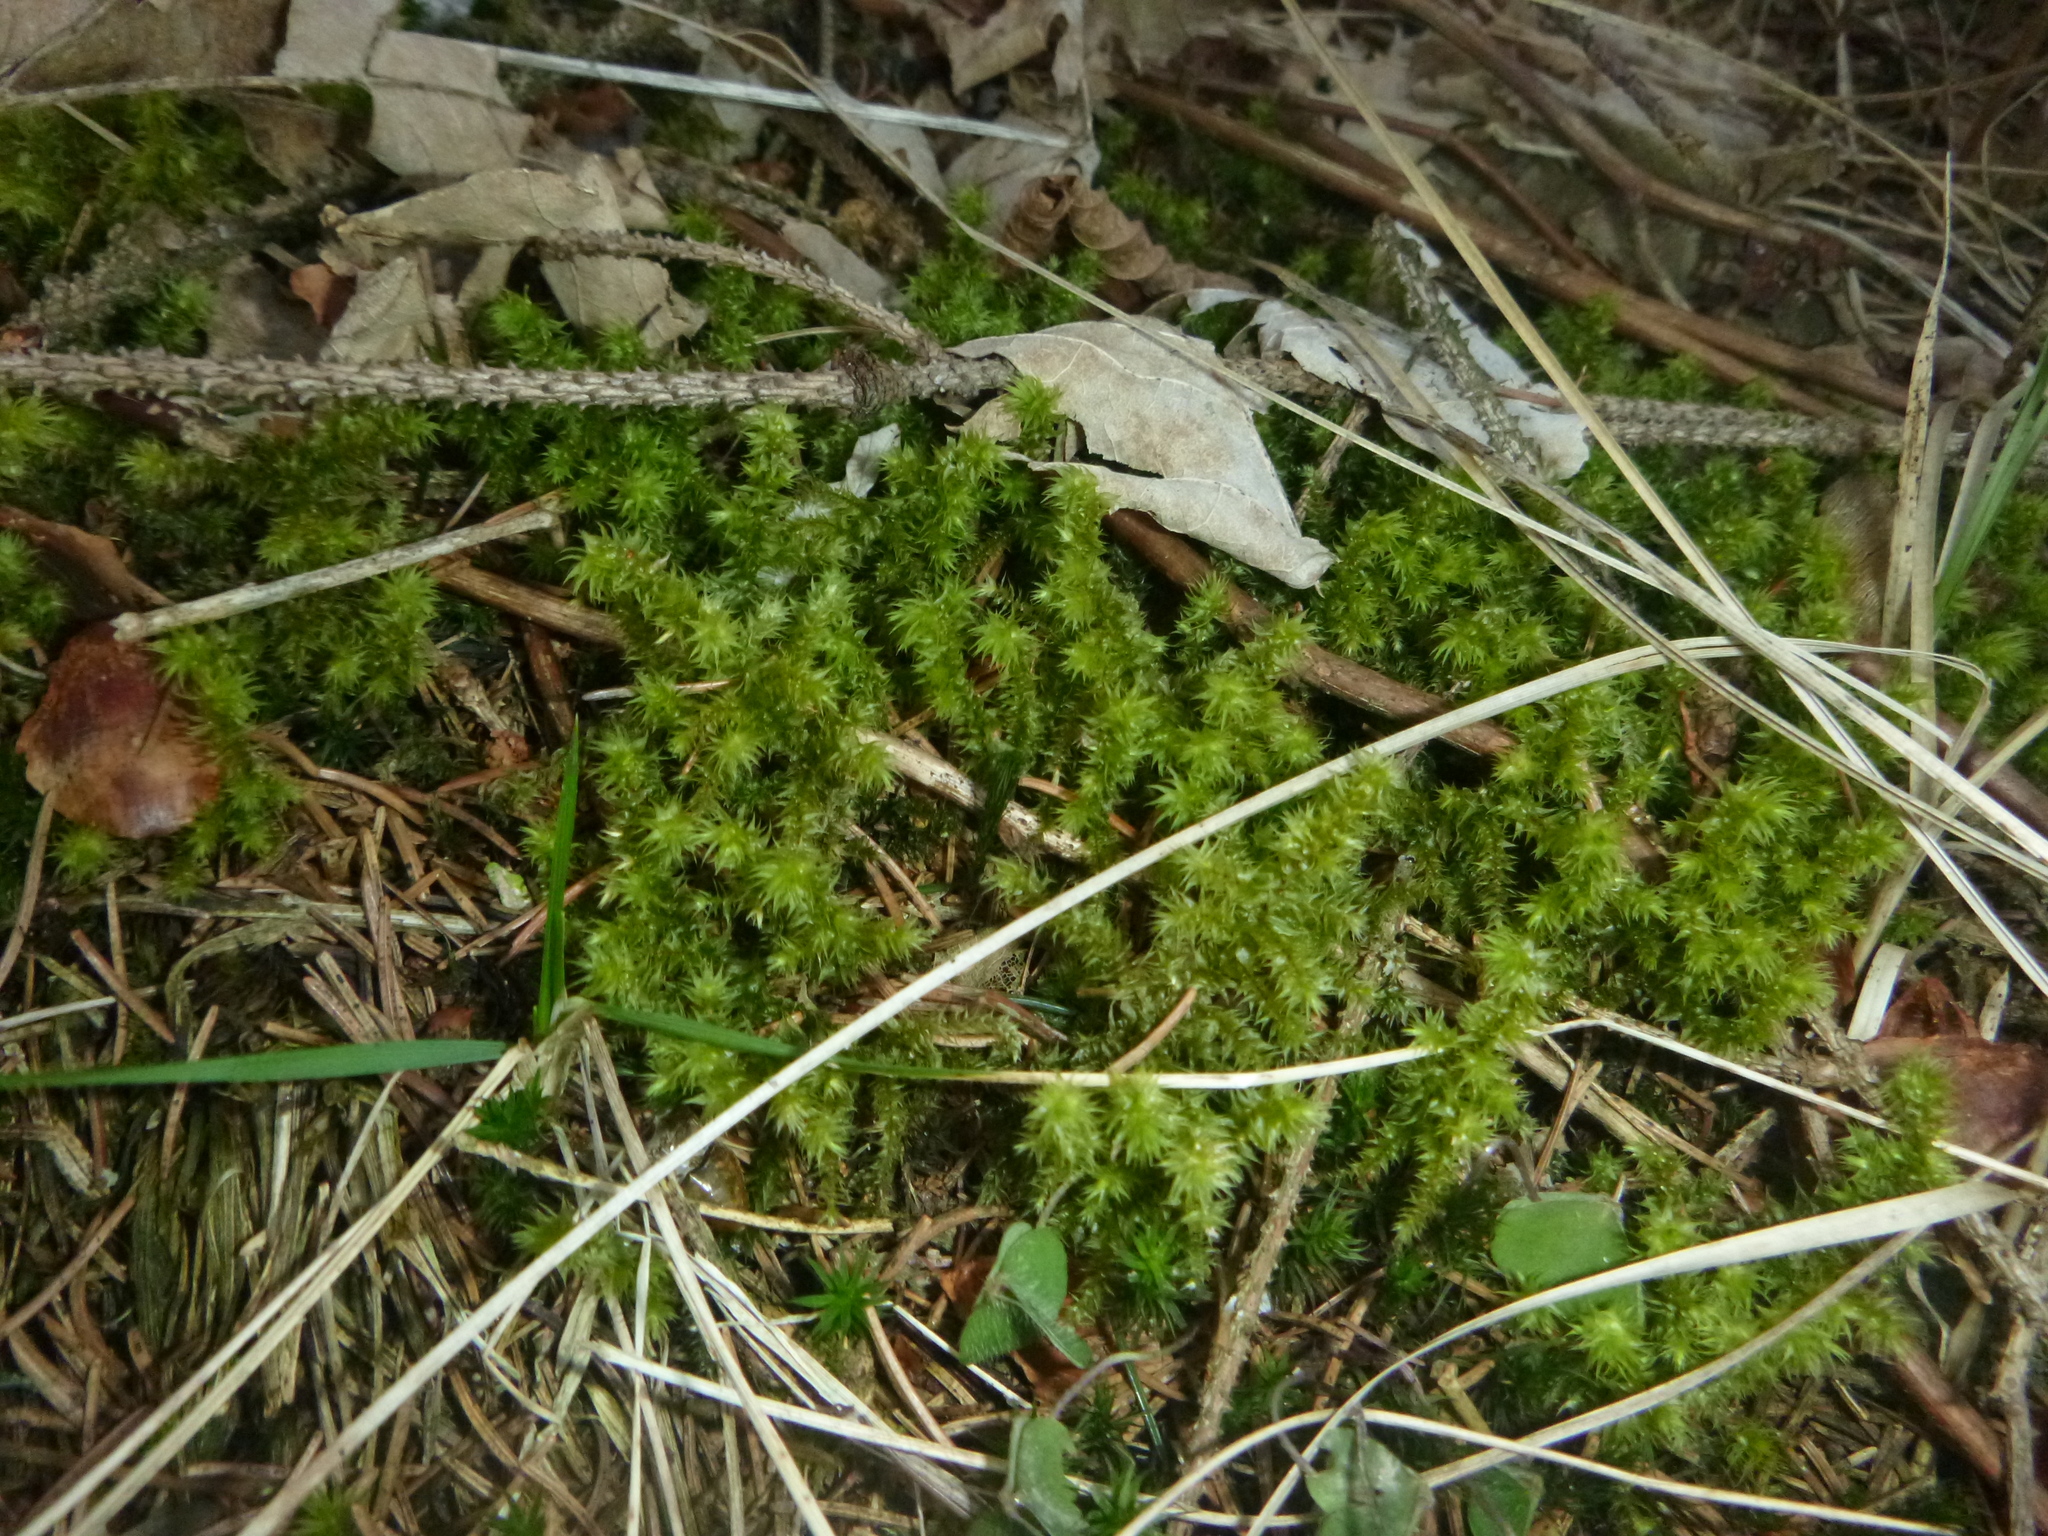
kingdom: Plantae
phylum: Bryophyta
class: Bryopsida
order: Hypnales
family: Hylocomiaceae
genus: Hylocomiadelphus
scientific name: Hylocomiadelphus triquetrus
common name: Rough goose neck moss
